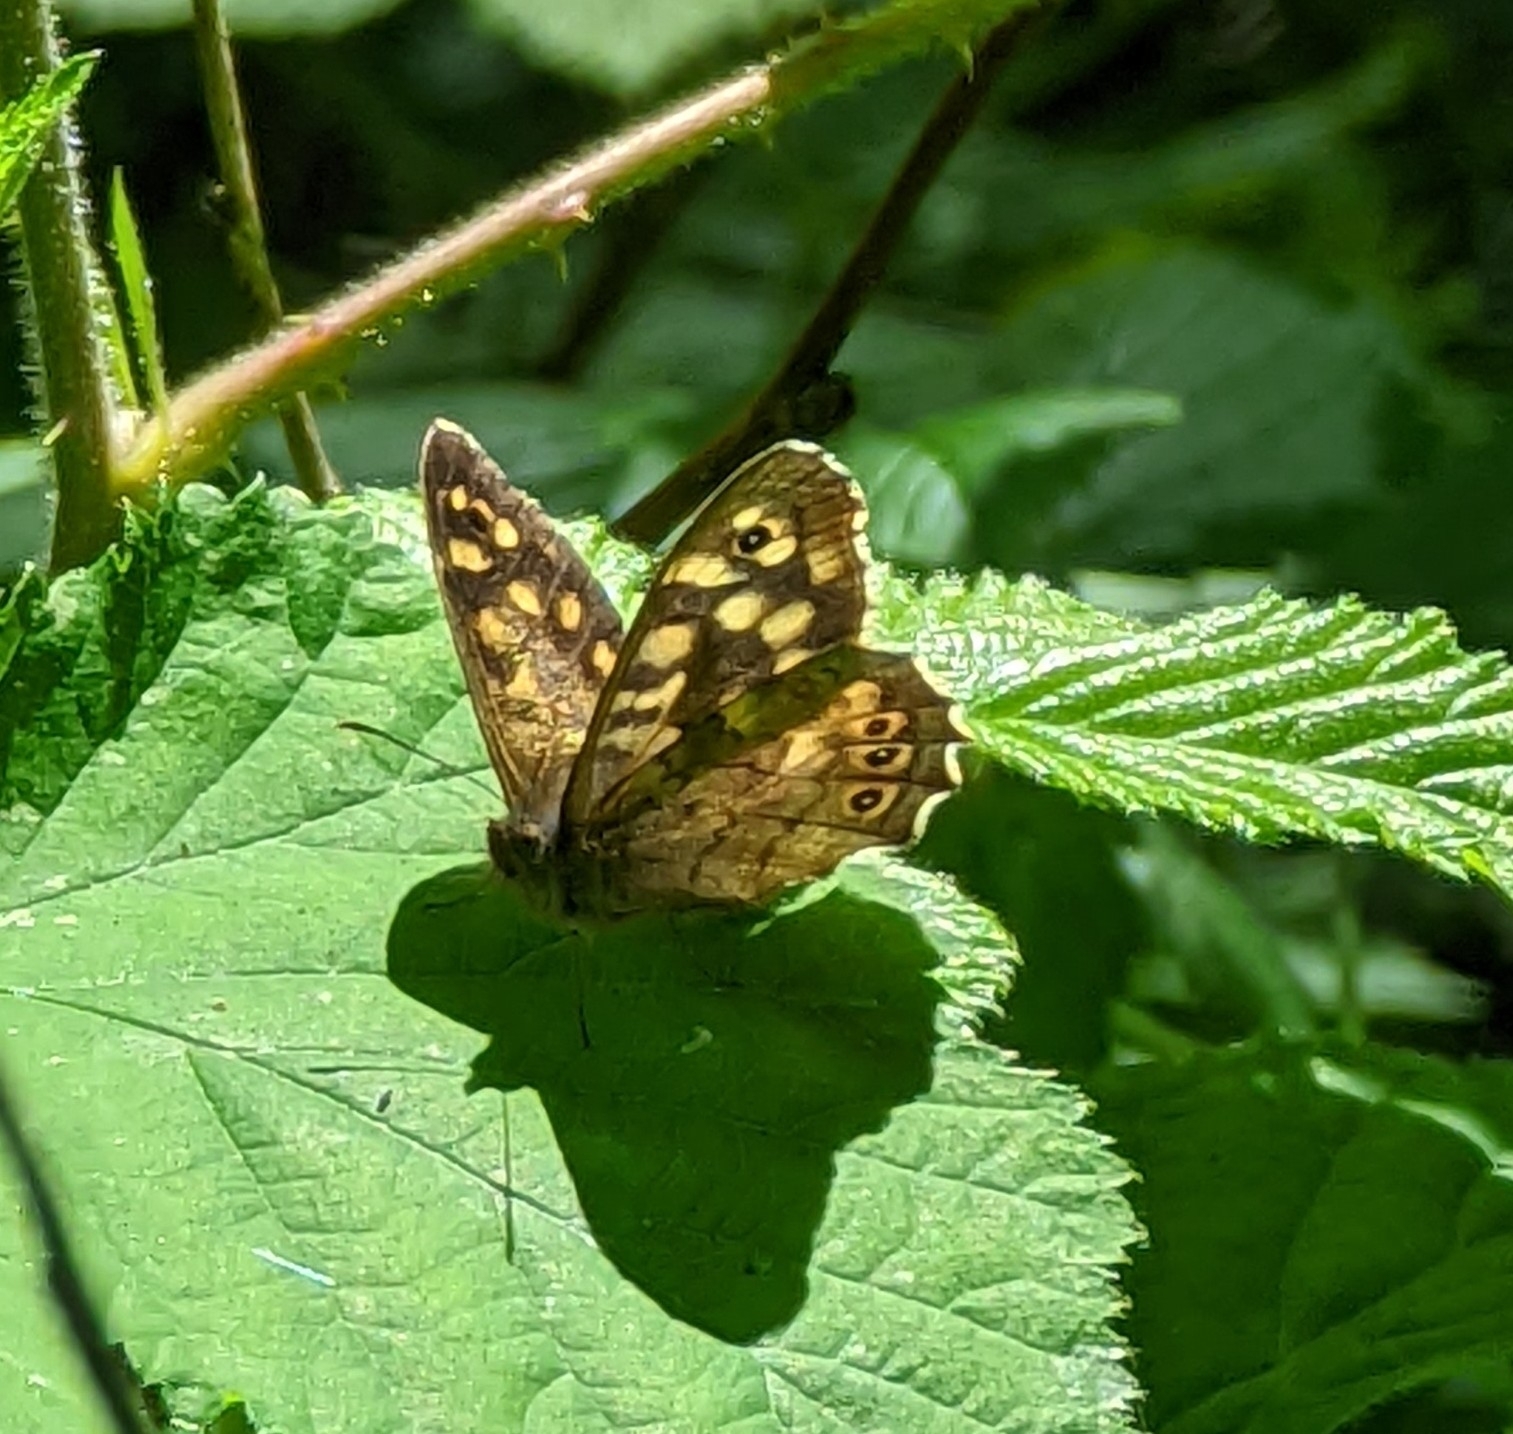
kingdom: Animalia
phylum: Arthropoda
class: Insecta
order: Lepidoptera
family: Nymphalidae
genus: Pararge
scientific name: Pararge aegeria
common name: Speckled wood
